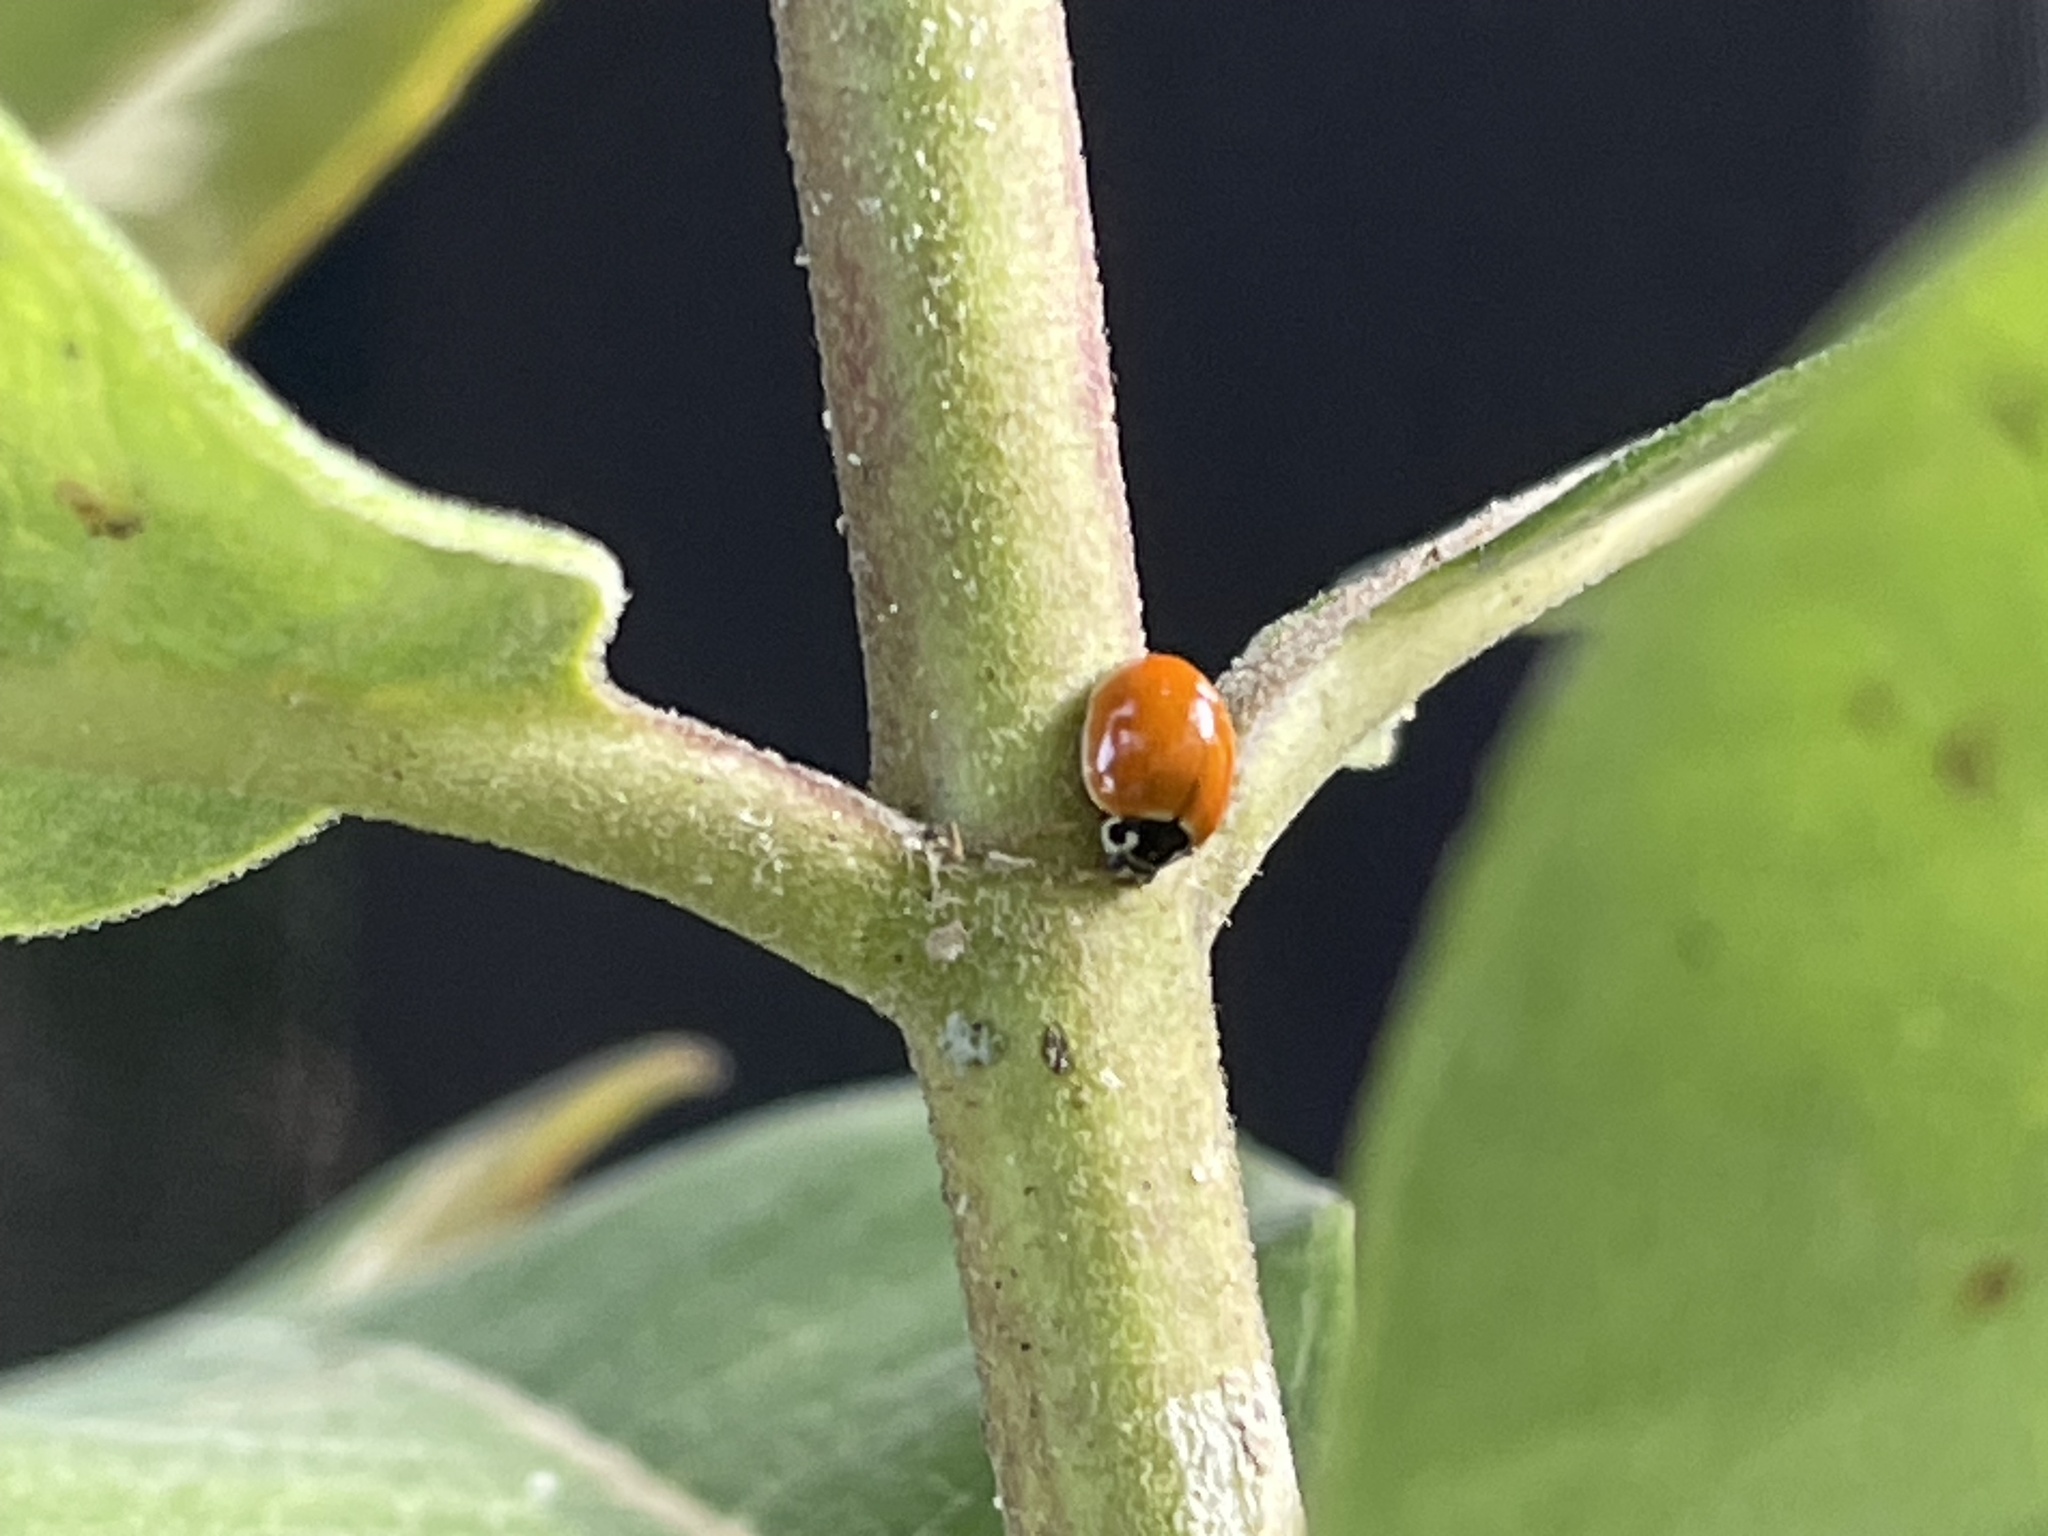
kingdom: Animalia
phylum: Arthropoda
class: Insecta
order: Coleoptera
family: Coccinellidae
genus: Cycloneda
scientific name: Cycloneda munda
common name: Polished lady beetle
